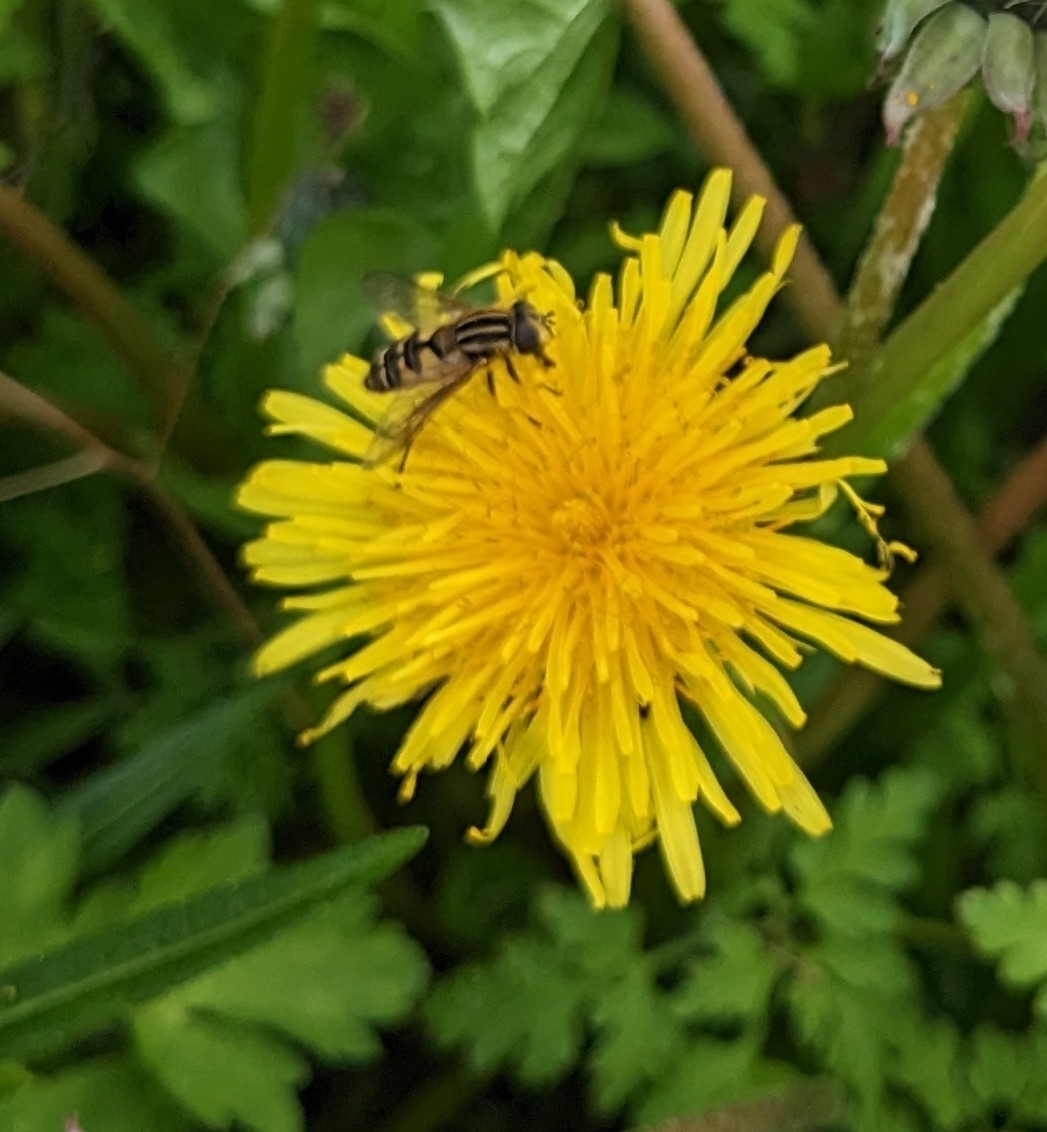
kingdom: Animalia
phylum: Arthropoda
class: Insecta
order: Diptera
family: Syrphidae
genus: Helophilus
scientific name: Helophilus pendulus
